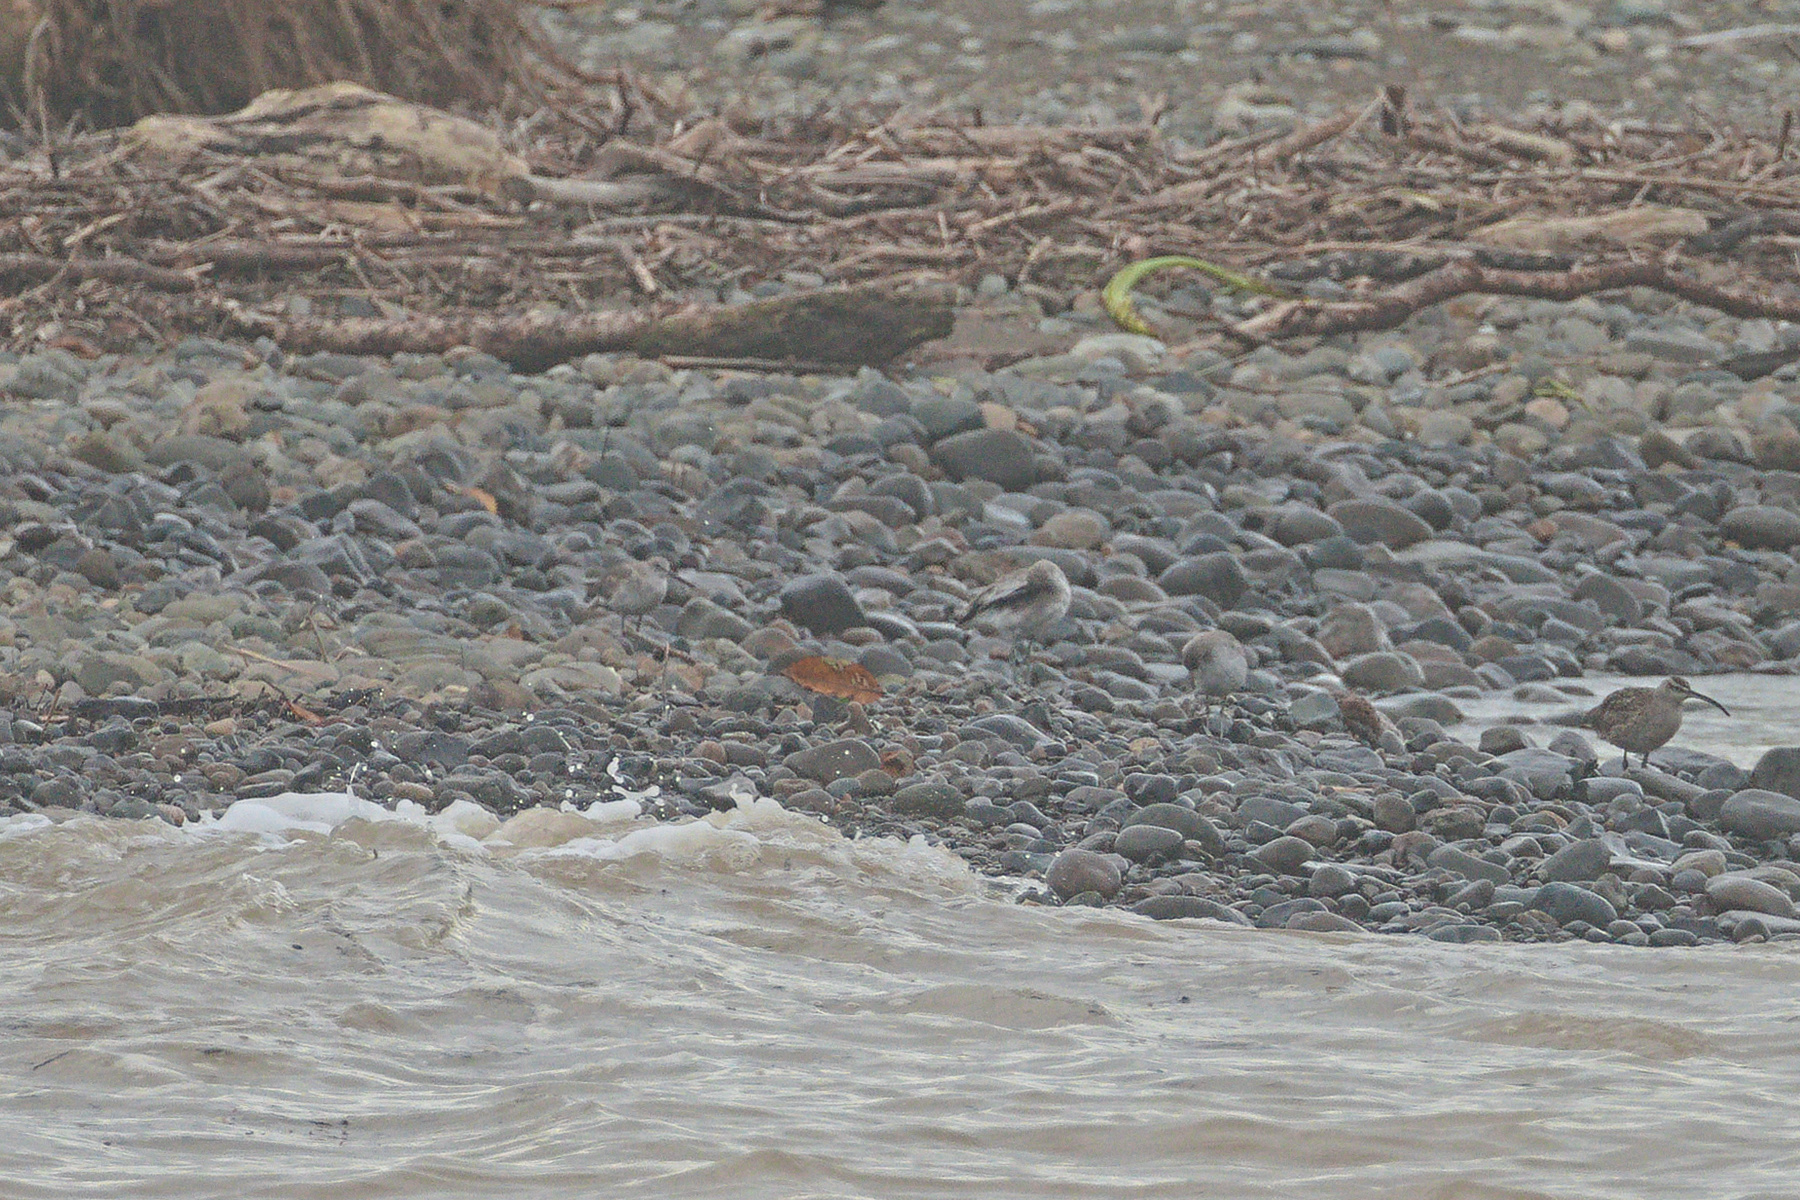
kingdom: Animalia
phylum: Chordata
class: Aves
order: Charadriiformes
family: Scolopacidae
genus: Tringa
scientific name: Tringa semipalmata
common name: Willet
